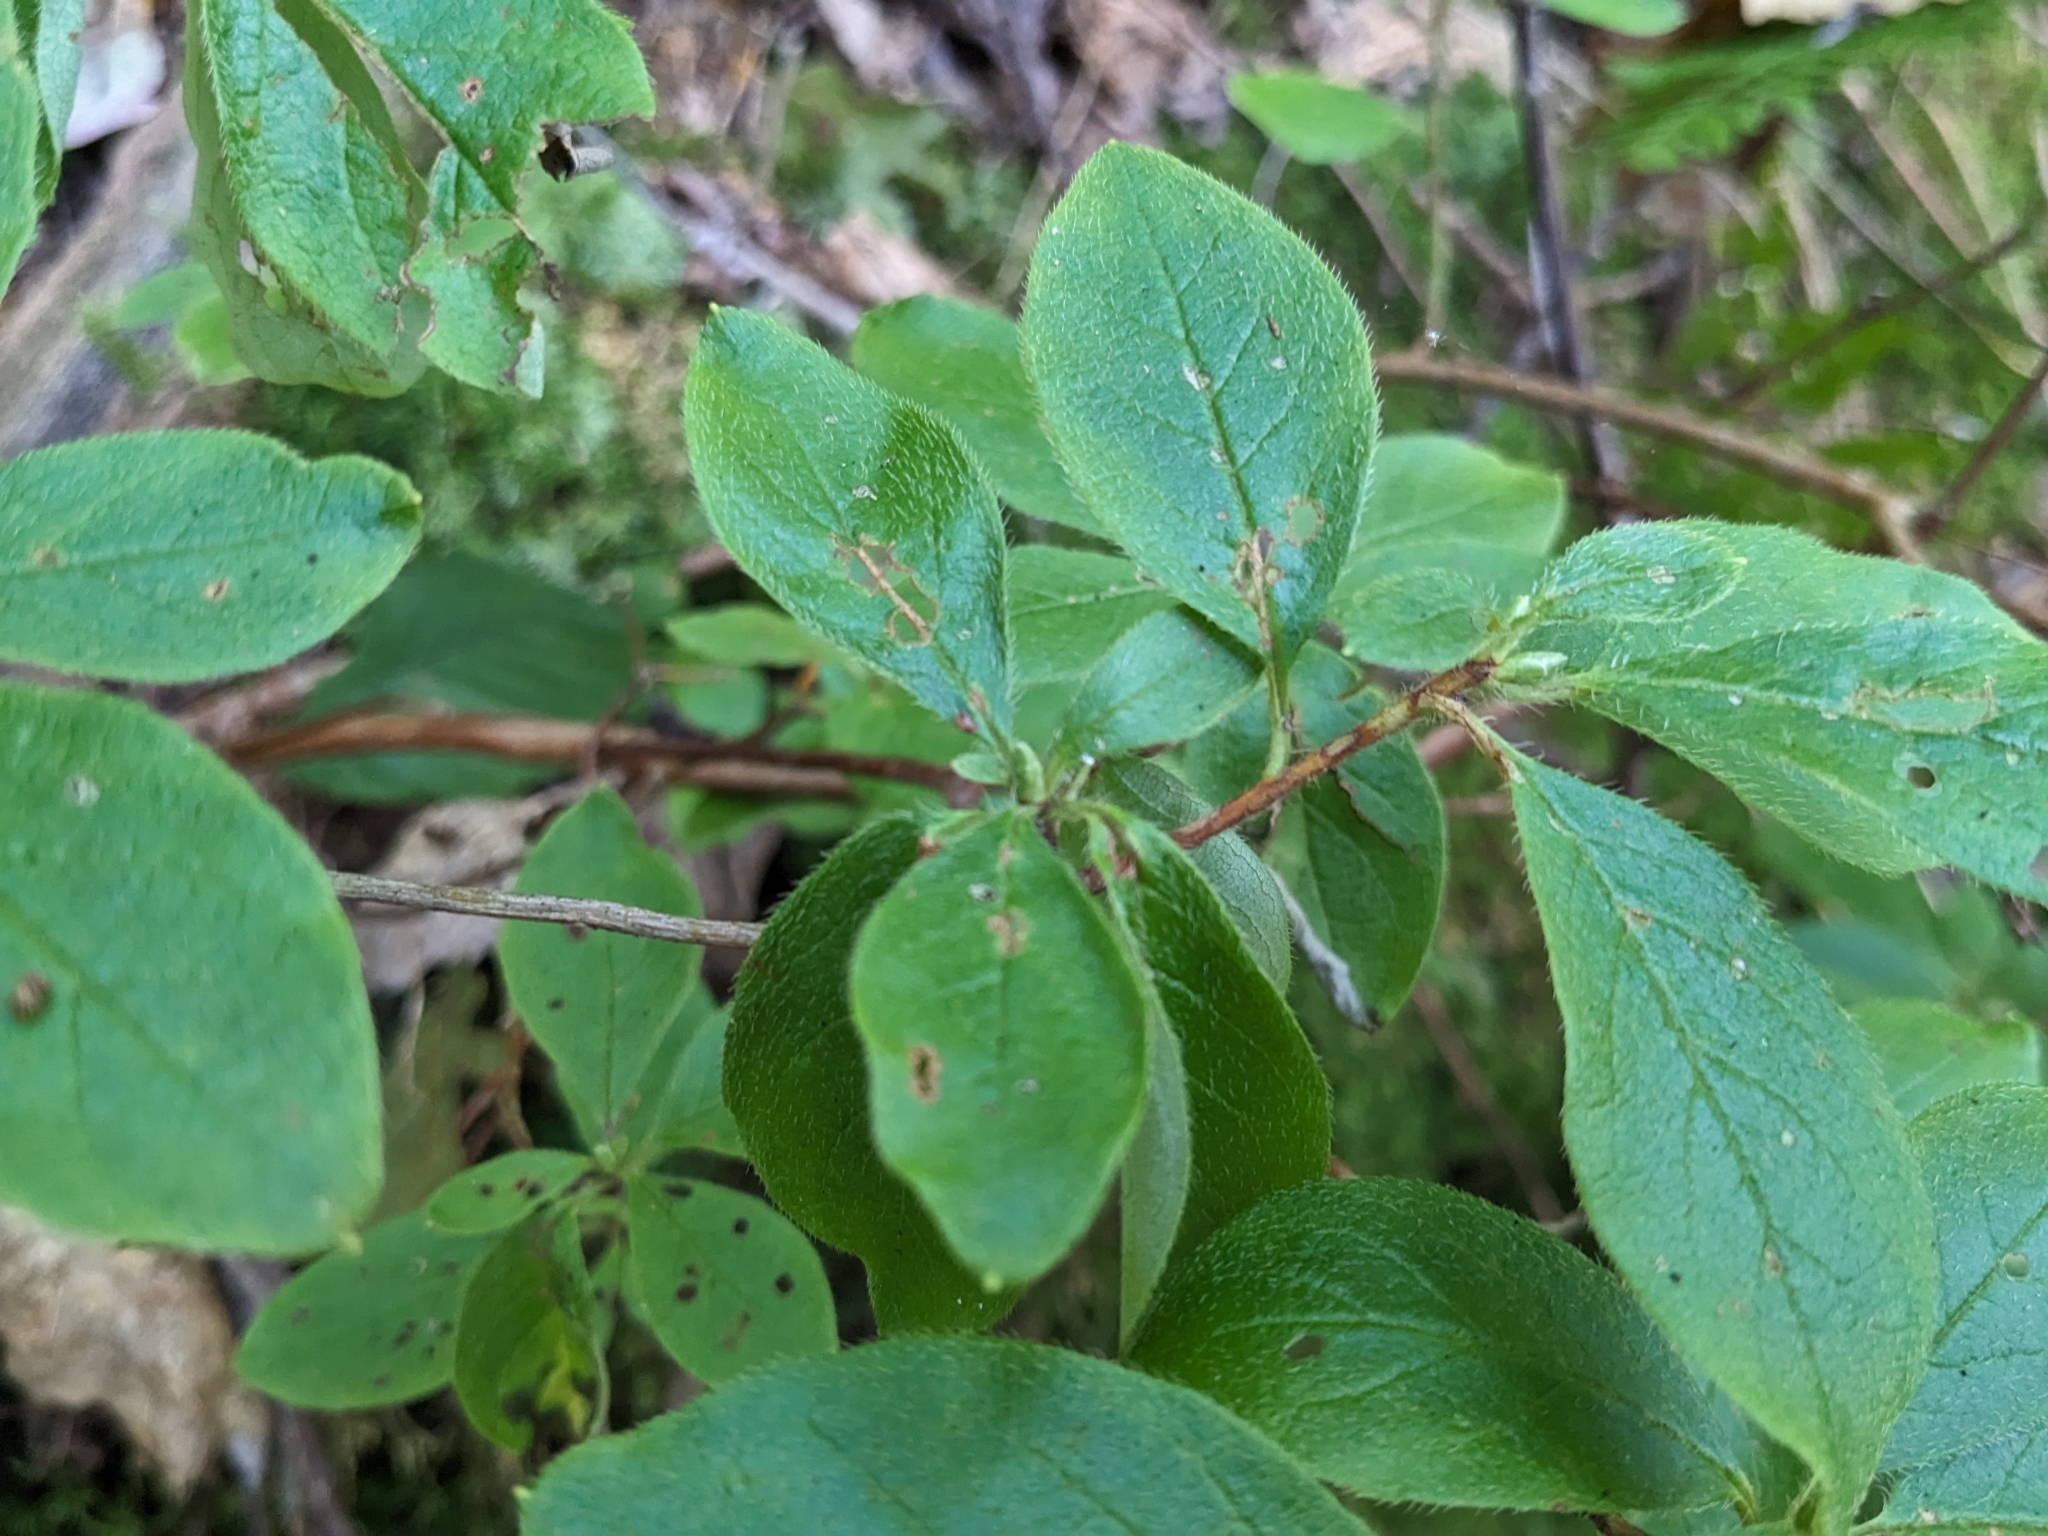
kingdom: Plantae
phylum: Tracheophyta
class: Magnoliopsida
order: Ericales
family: Ericaceae
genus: Rhododendron
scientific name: Rhododendron pilosum
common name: Hairy minniebush
